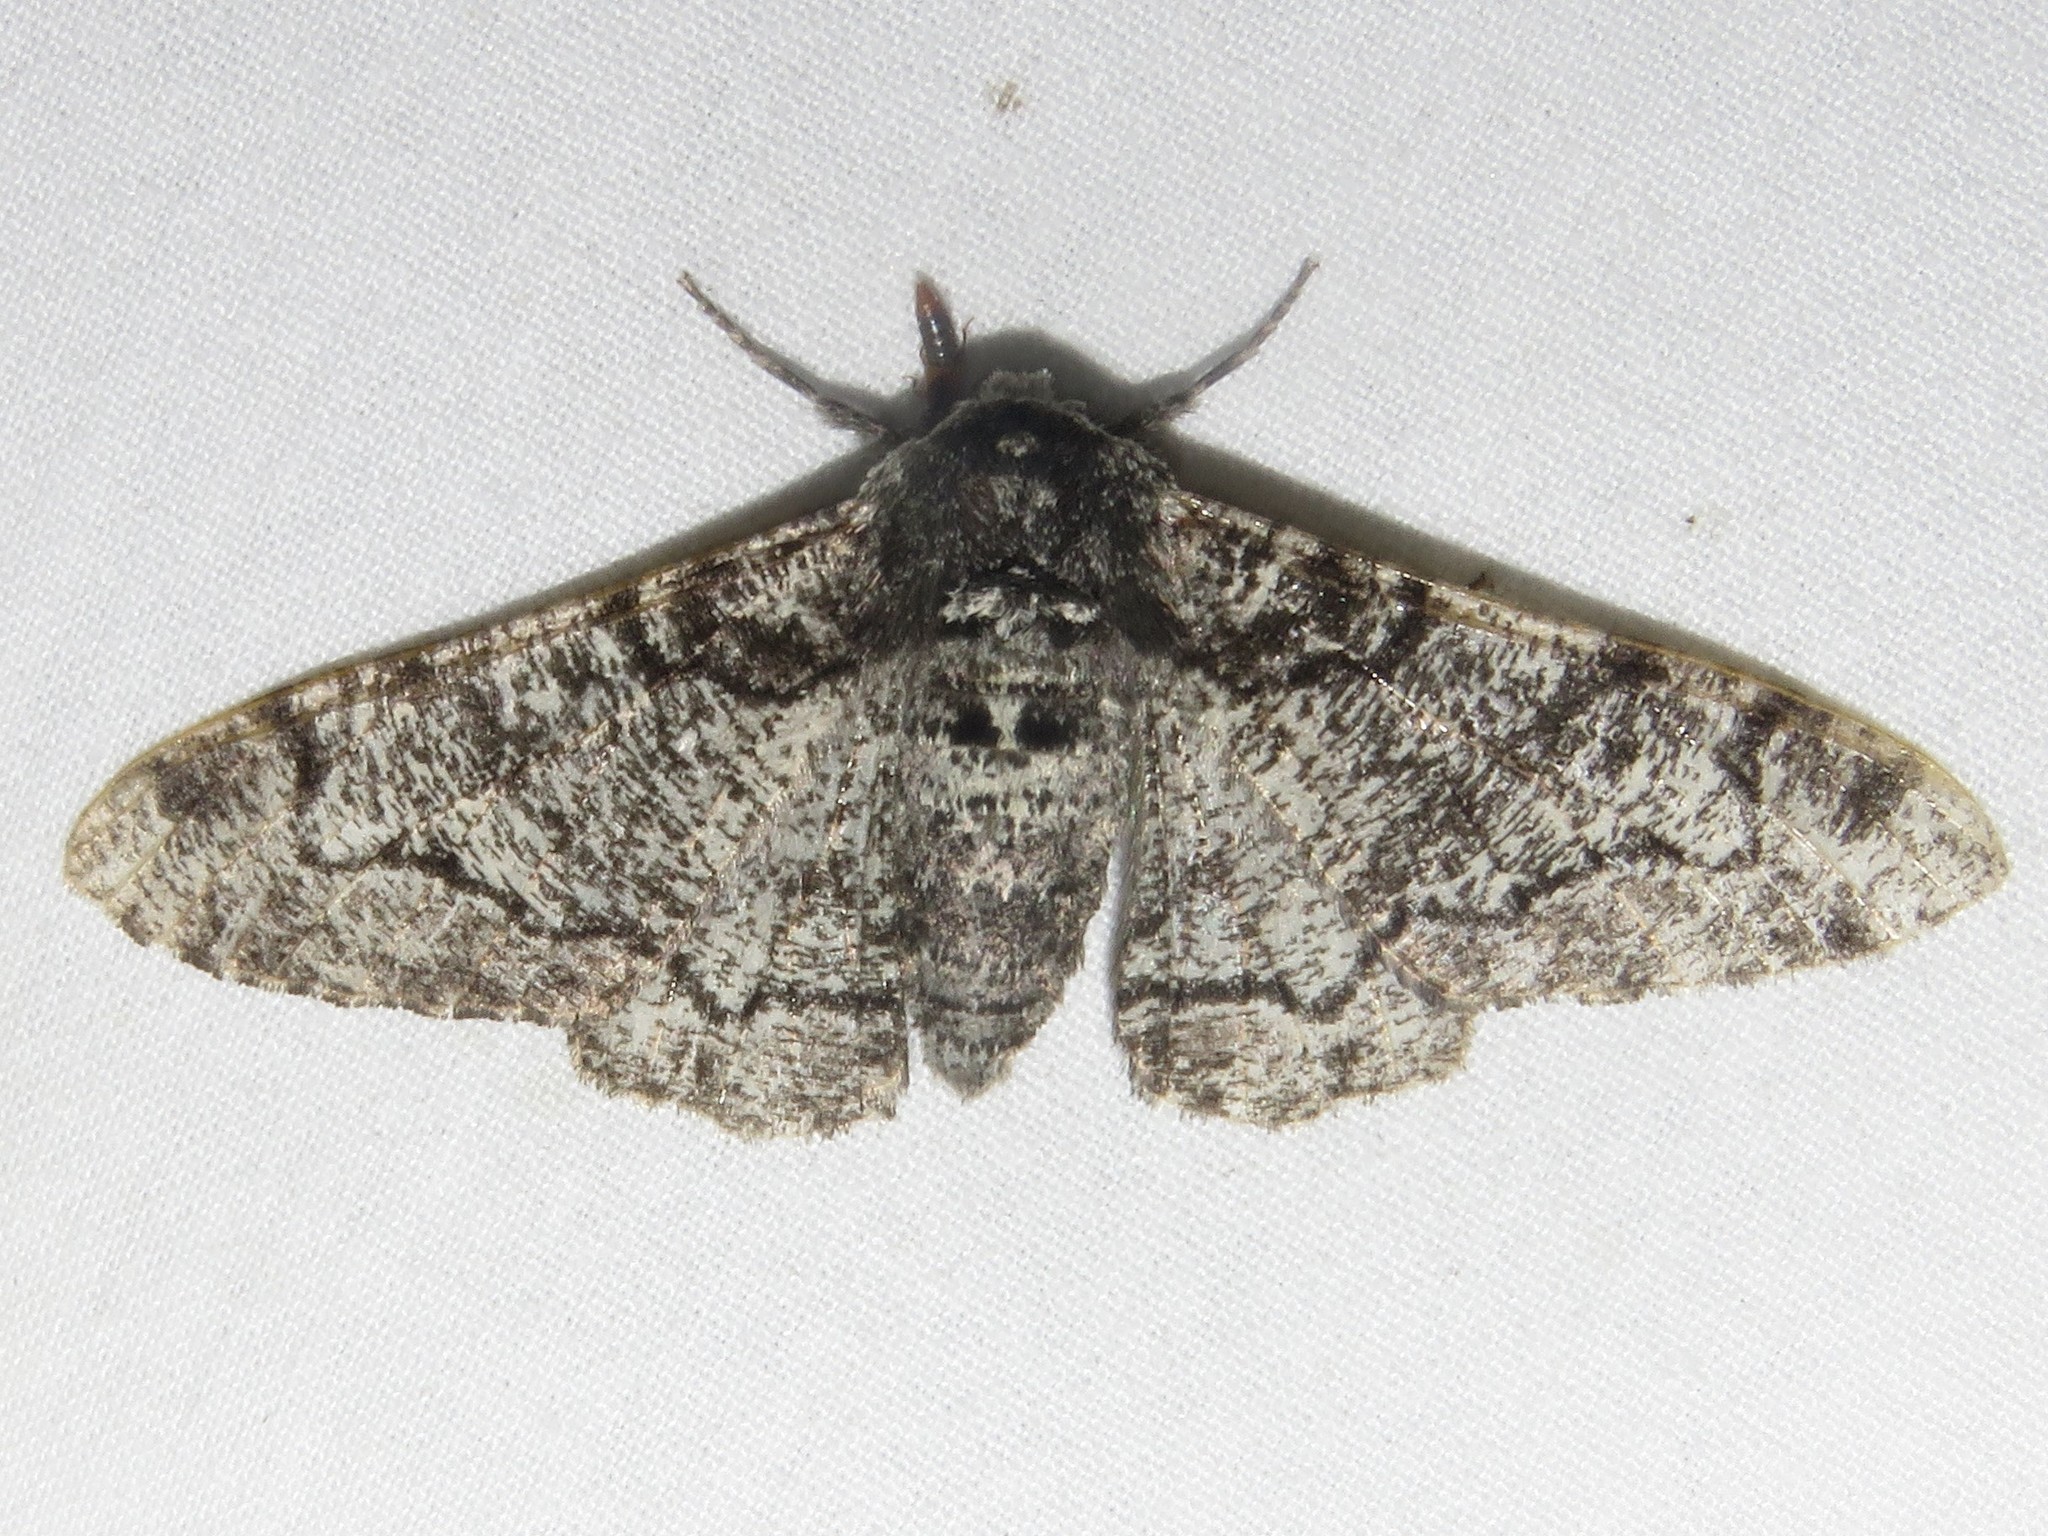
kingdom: Animalia
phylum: Arthropoda
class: Insecta
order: Lepidoptera
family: Geometridae
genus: Biston
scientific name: Biston betularia
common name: Peppered moth
